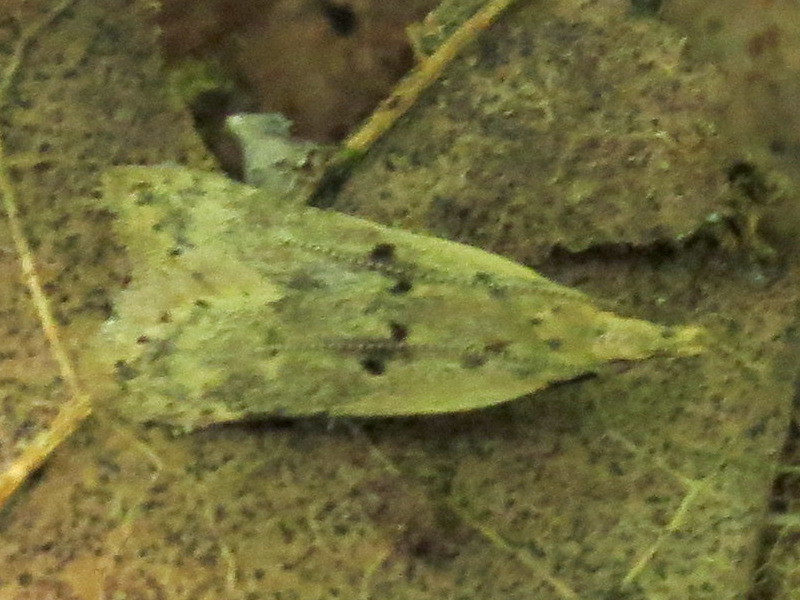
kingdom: Animalia
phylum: Arthropoda
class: Insecta
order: Lepidoptera
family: Gelechiidae
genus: Dichomeris
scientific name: Dichomeris punctipennella
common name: Many-spotted dichomeris moth
